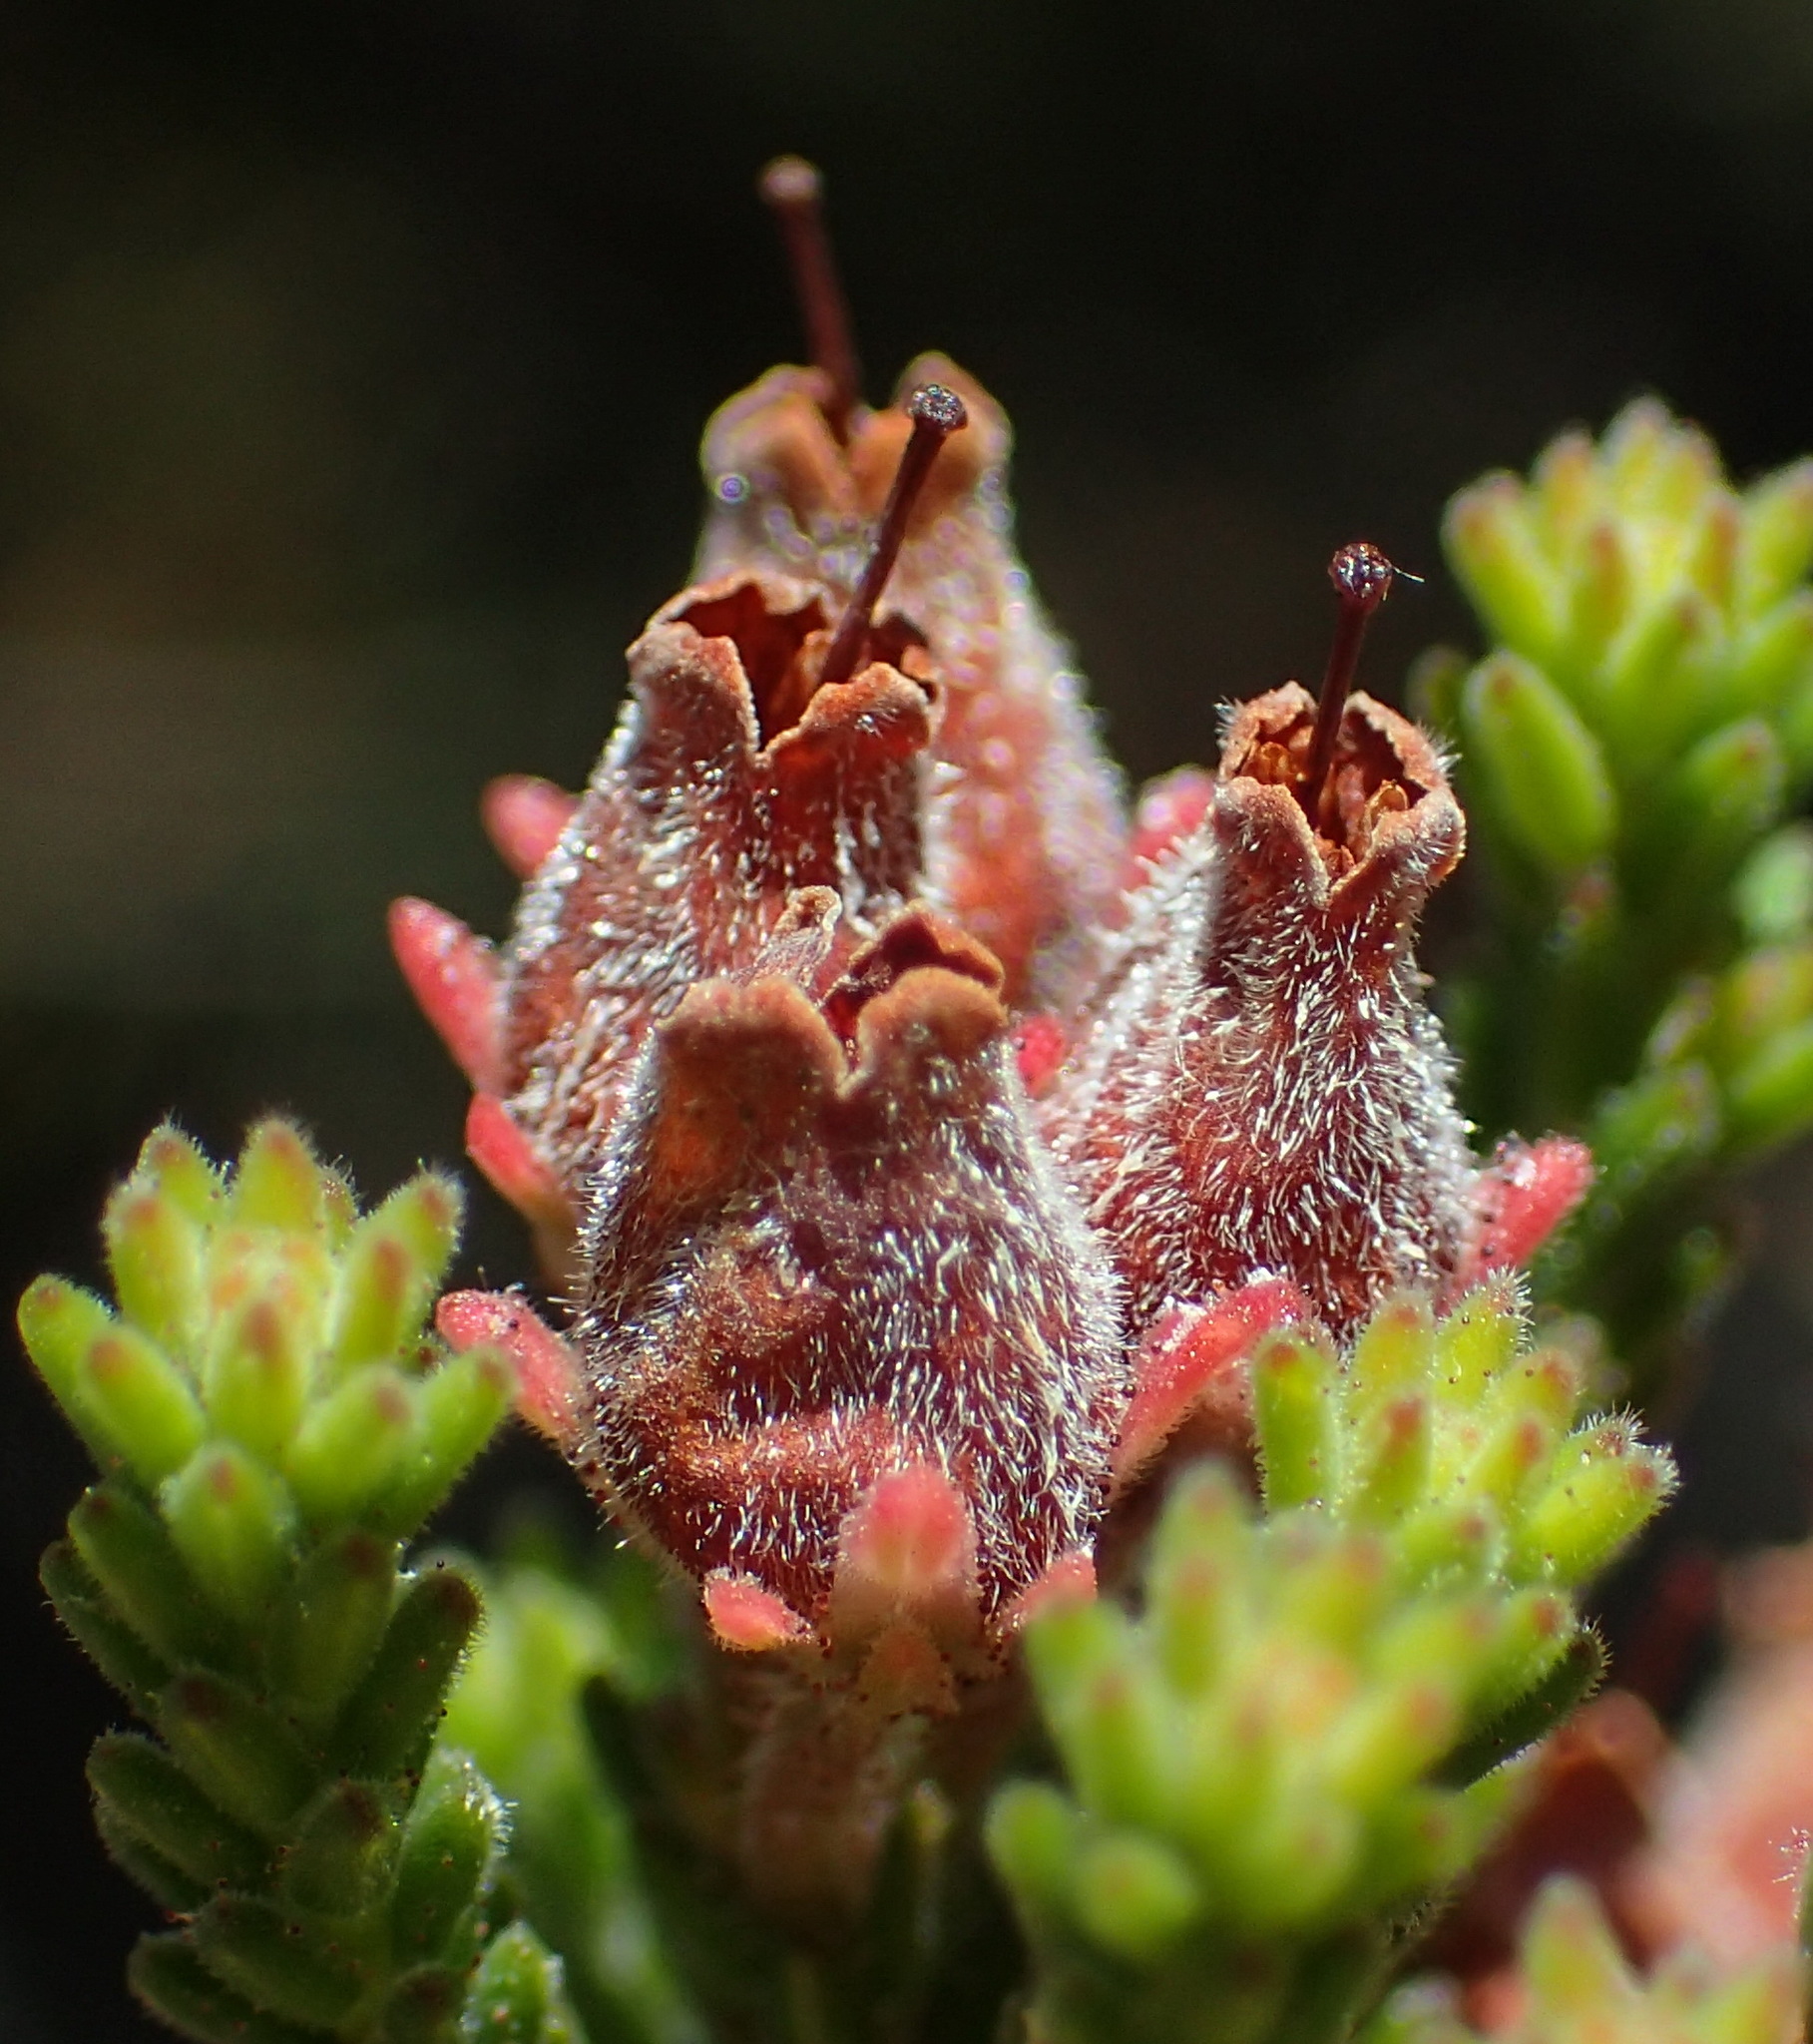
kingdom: Plantae
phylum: Tracheophyta
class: Magnoliopsida
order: Ericales
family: Ericaceae
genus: Erica
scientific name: Erica lignosa
